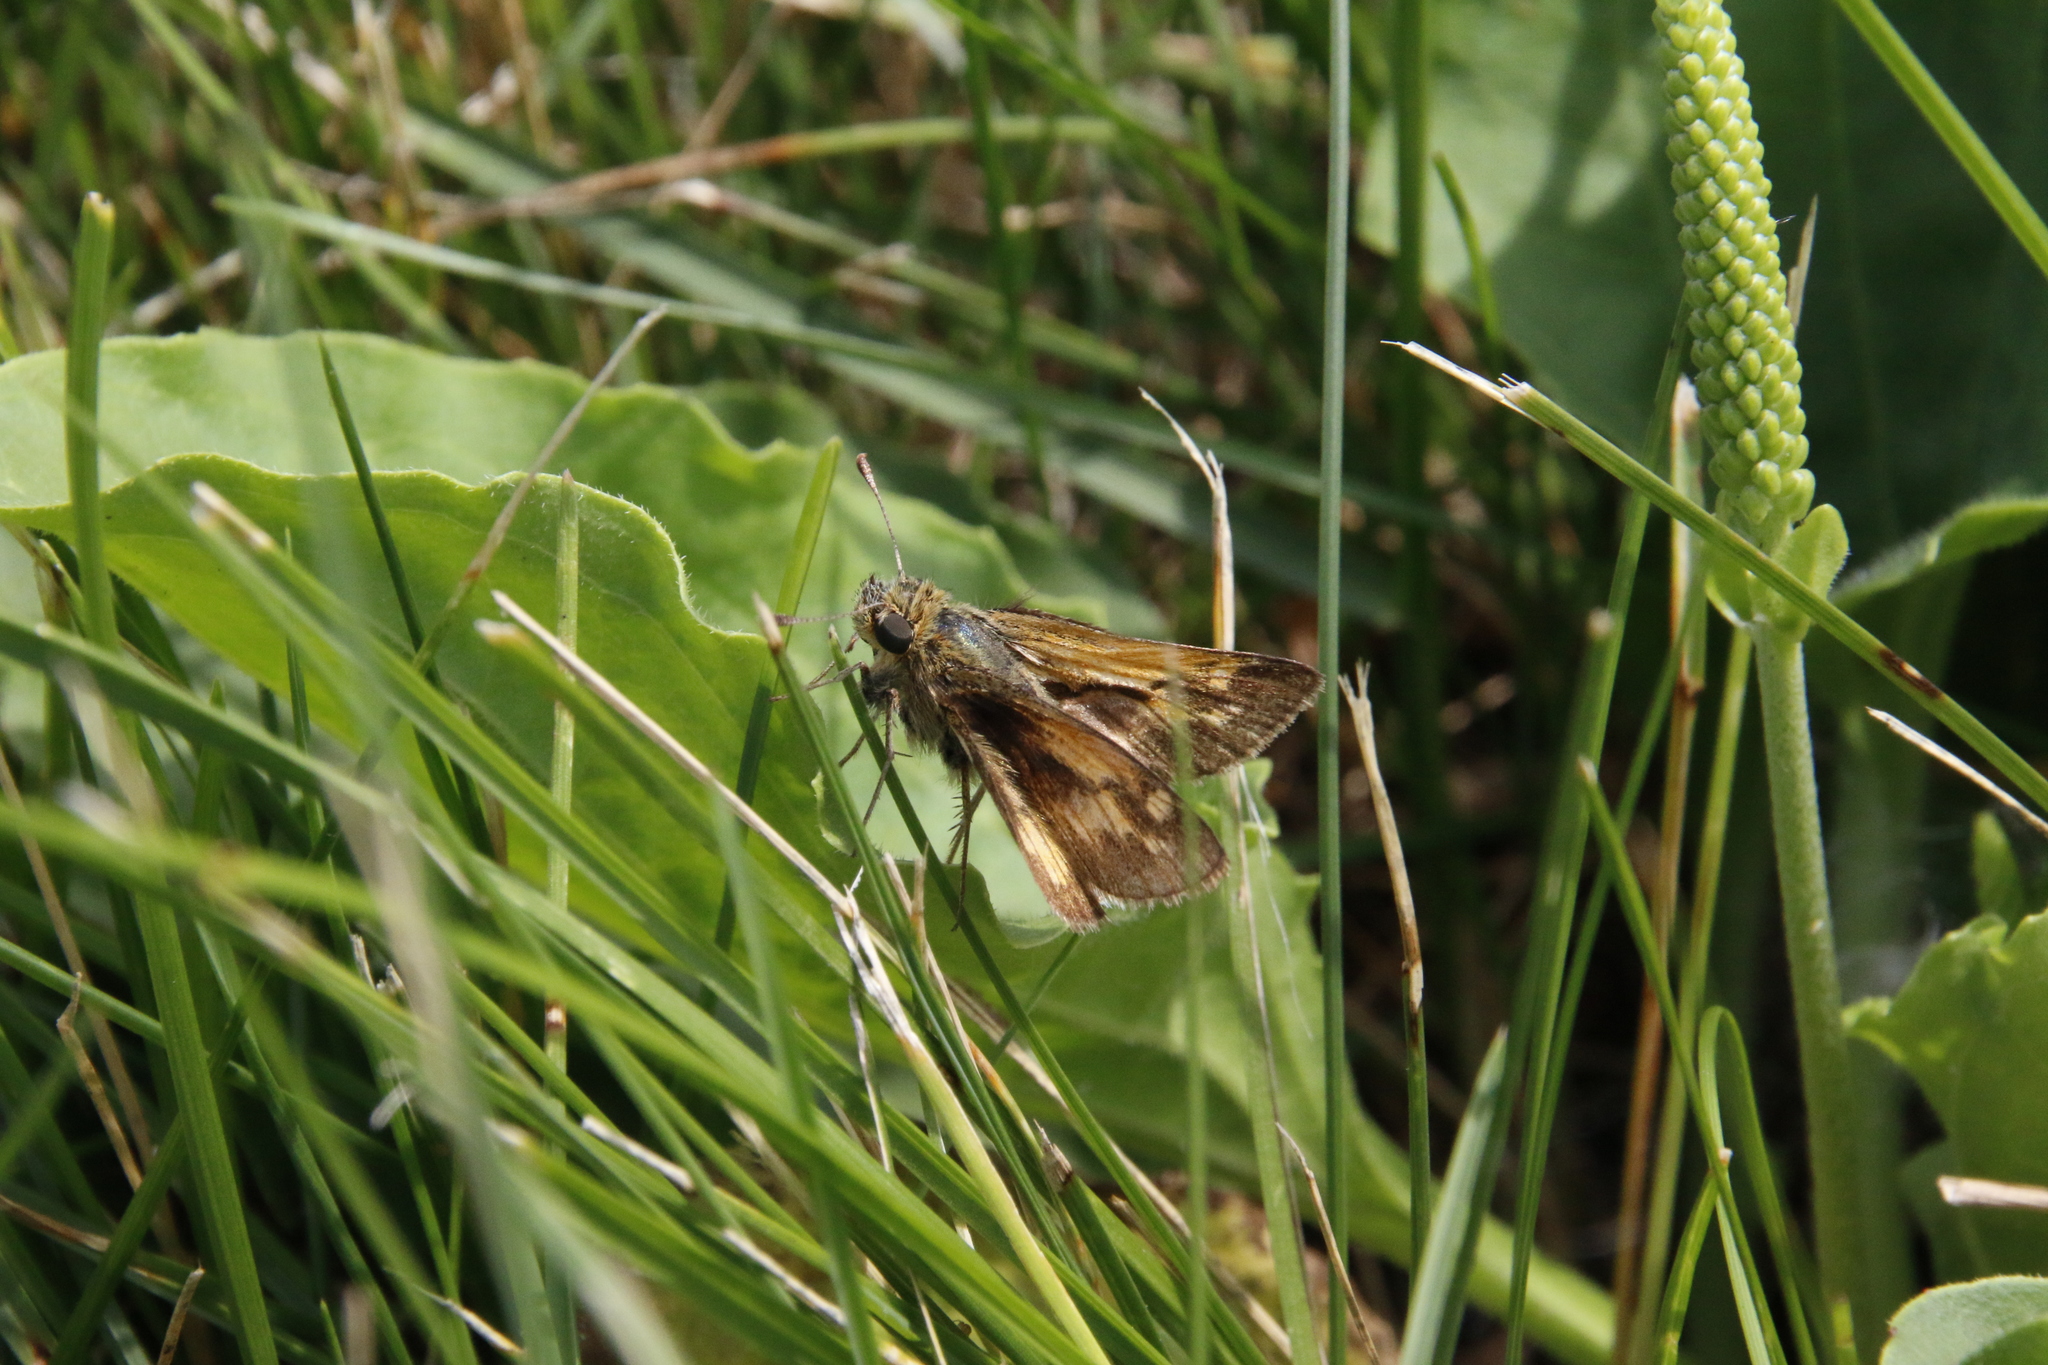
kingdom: Animalia
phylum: Arthropoda
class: Insecta
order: Lepidoptera
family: Hesperiidae
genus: Polites
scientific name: Polites coras
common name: Peck's skipper
